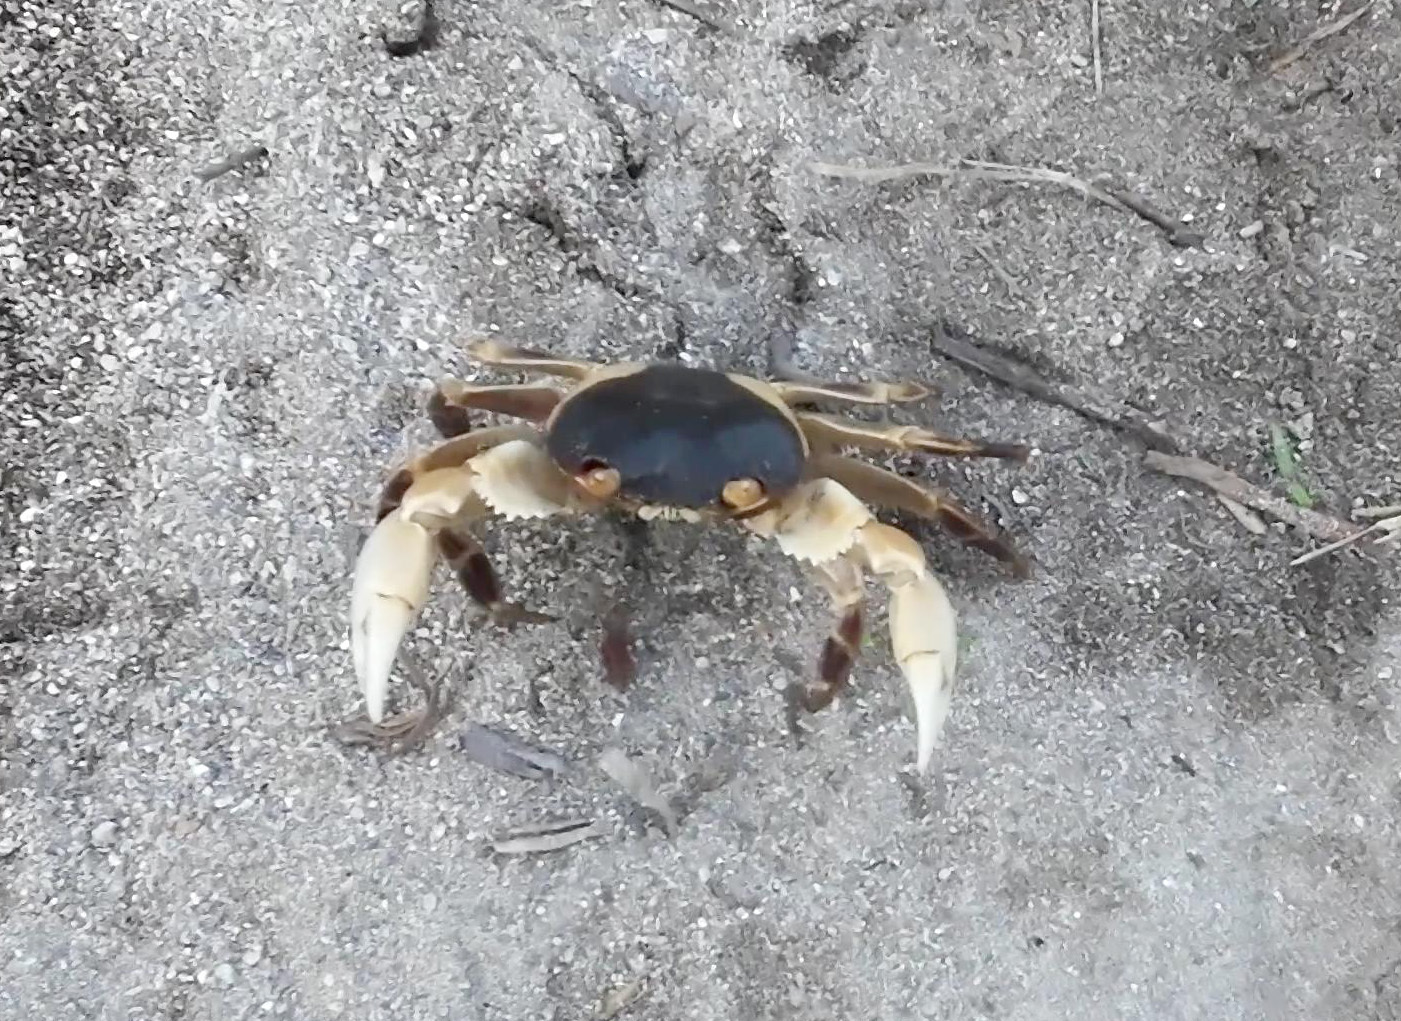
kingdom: Animalia
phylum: Arthropoda
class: Malacostraca
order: Decapoda
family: Grapsidae
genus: Geograpsus
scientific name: Geograpsus grayi
